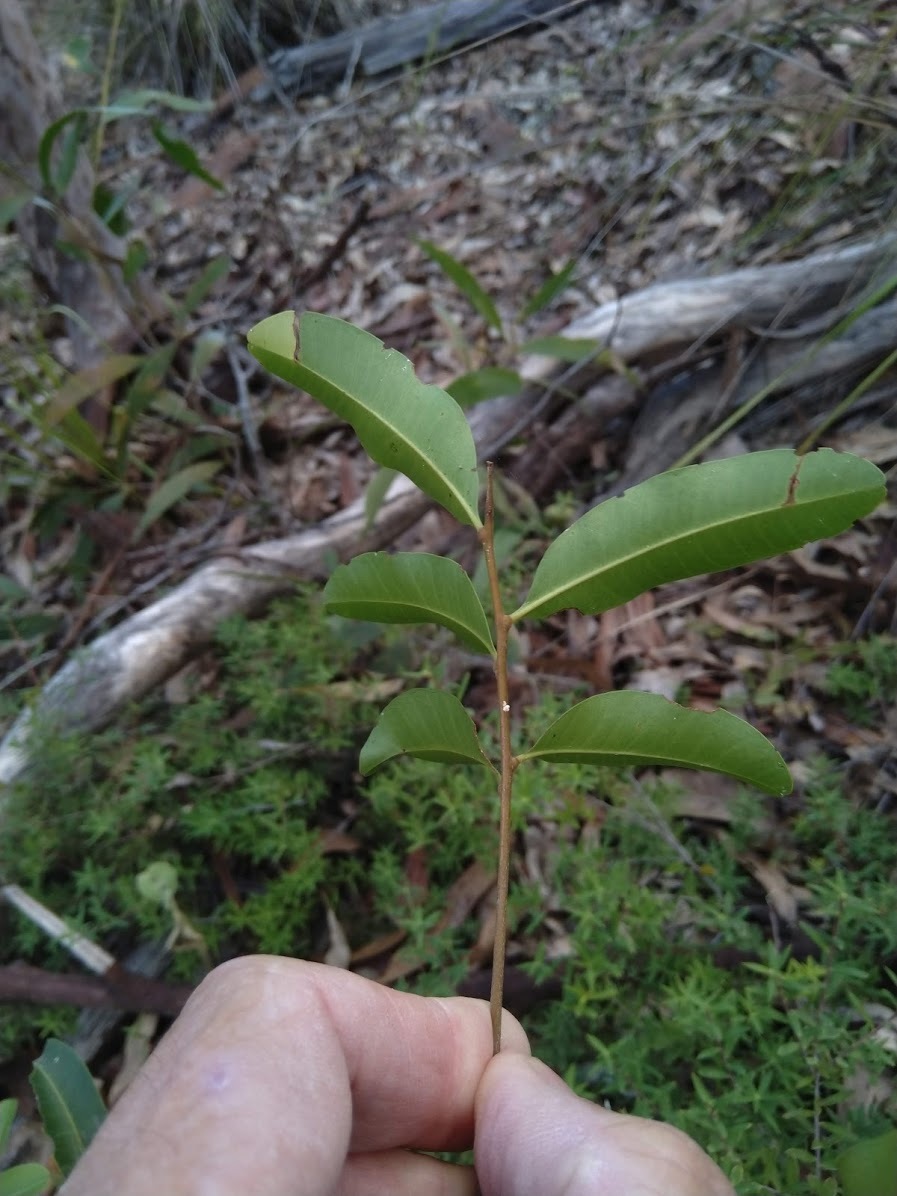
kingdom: Plantae
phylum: Tracheophyta
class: Magnoliopsida
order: Sapindales
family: Sapindaceae
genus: Cupaniopsis
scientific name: Cupaniopsis parvifolia
